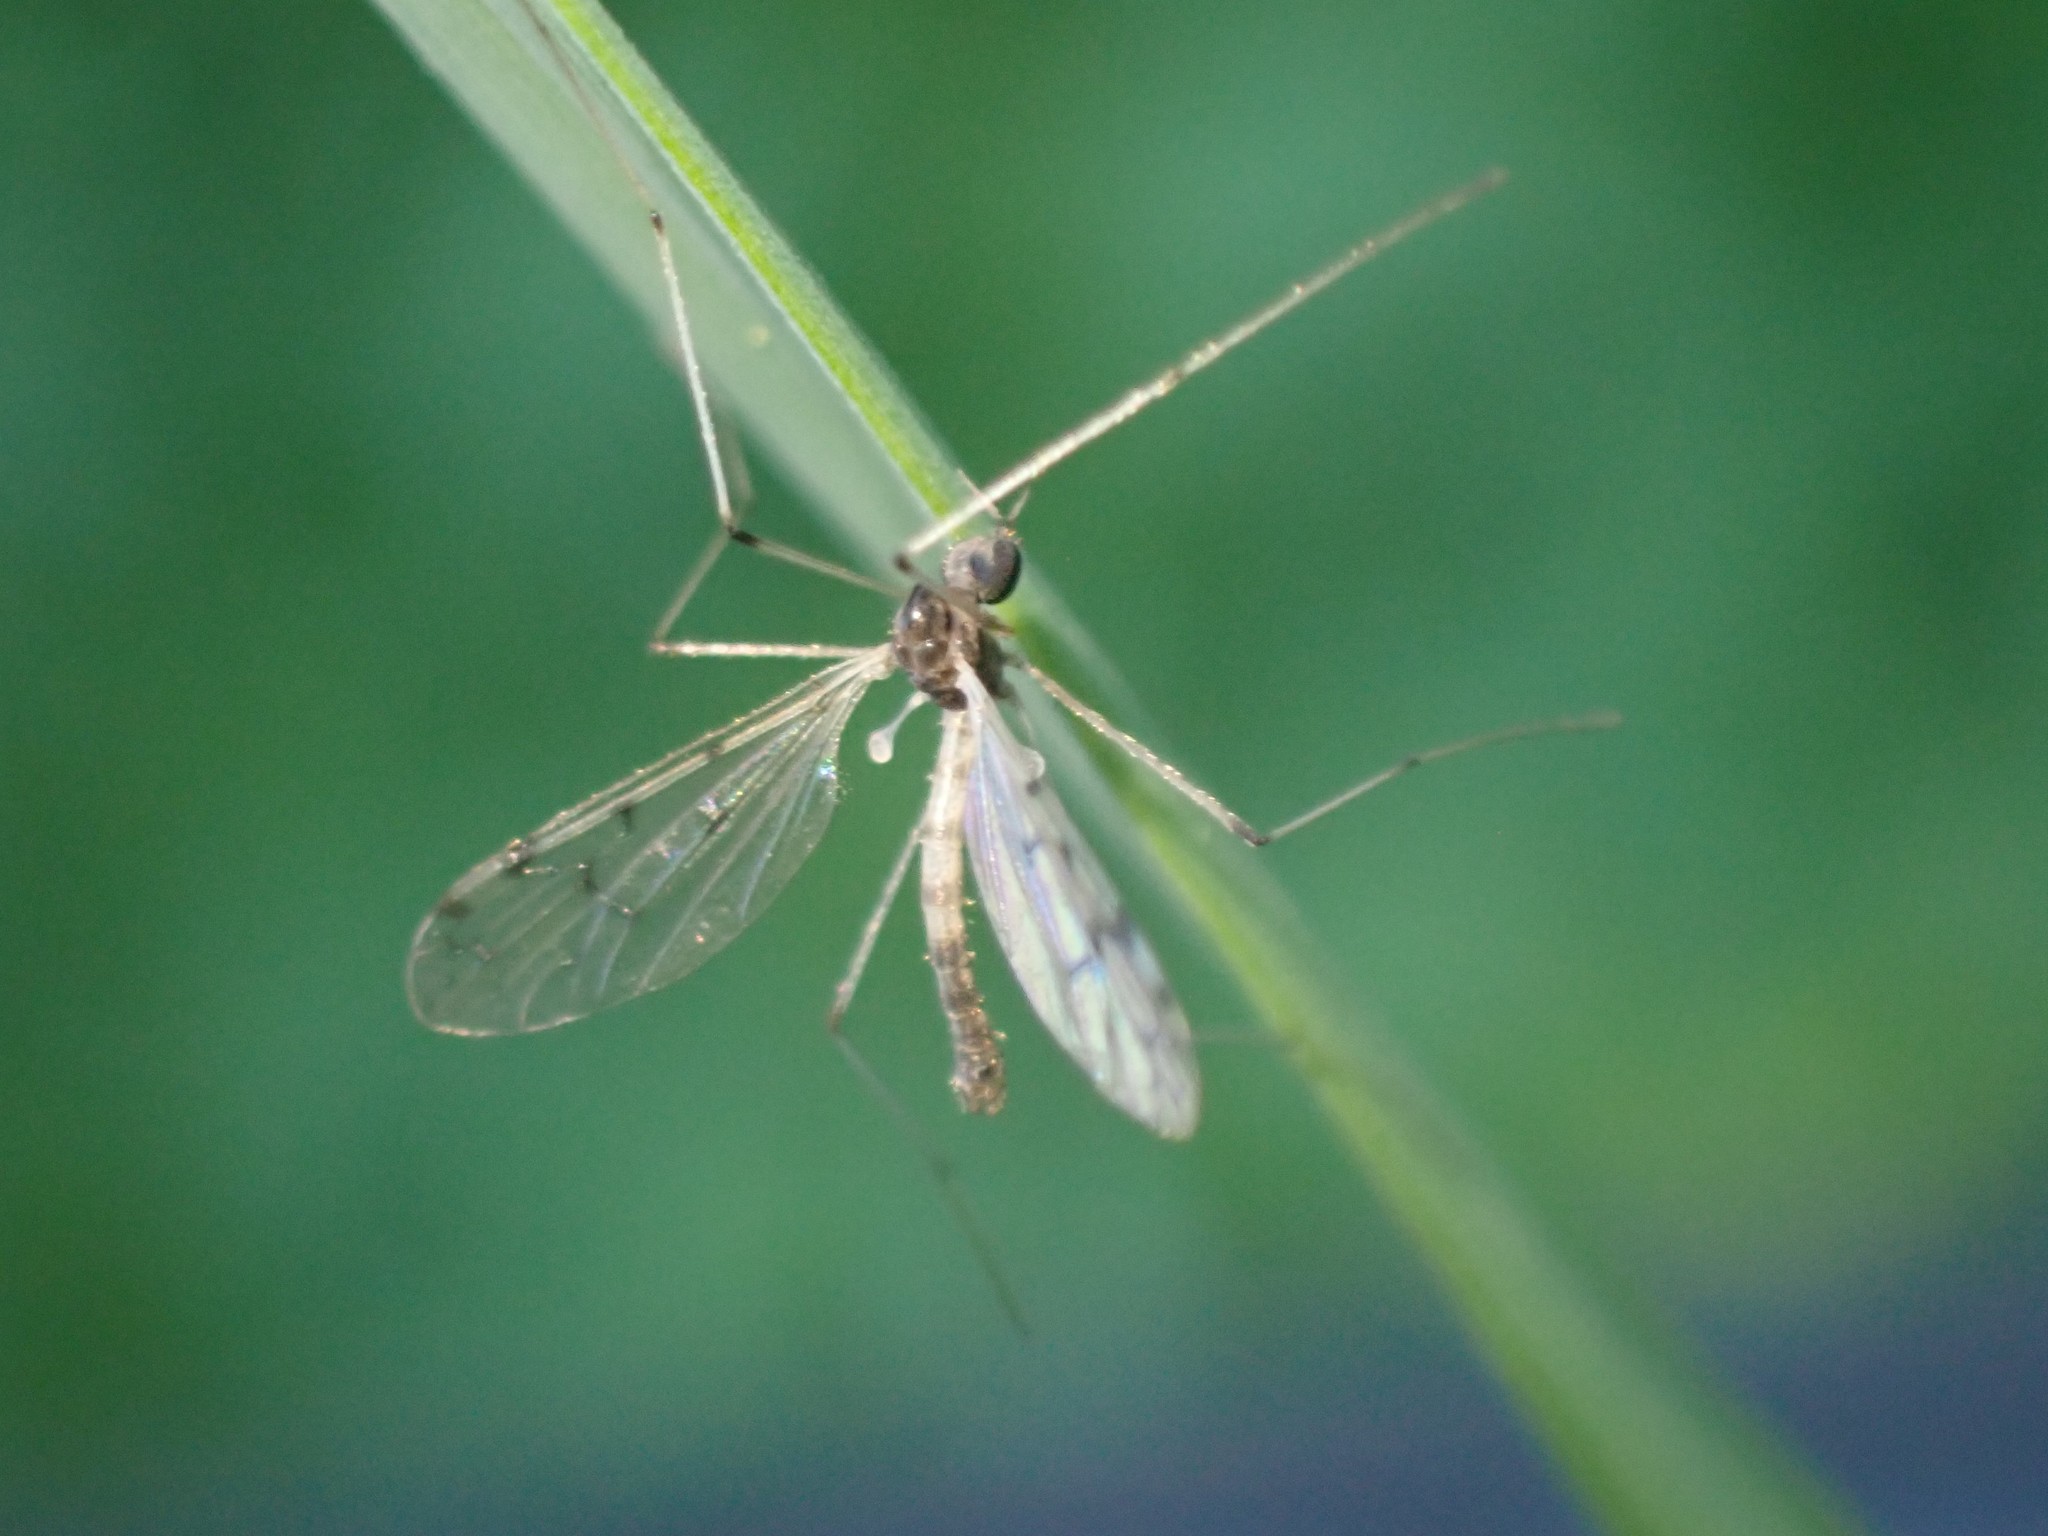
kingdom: Animalia
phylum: Arthropoda
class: Insecta
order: Diptera
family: Pediciidae
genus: Dicranota
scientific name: Dicranota maculata
